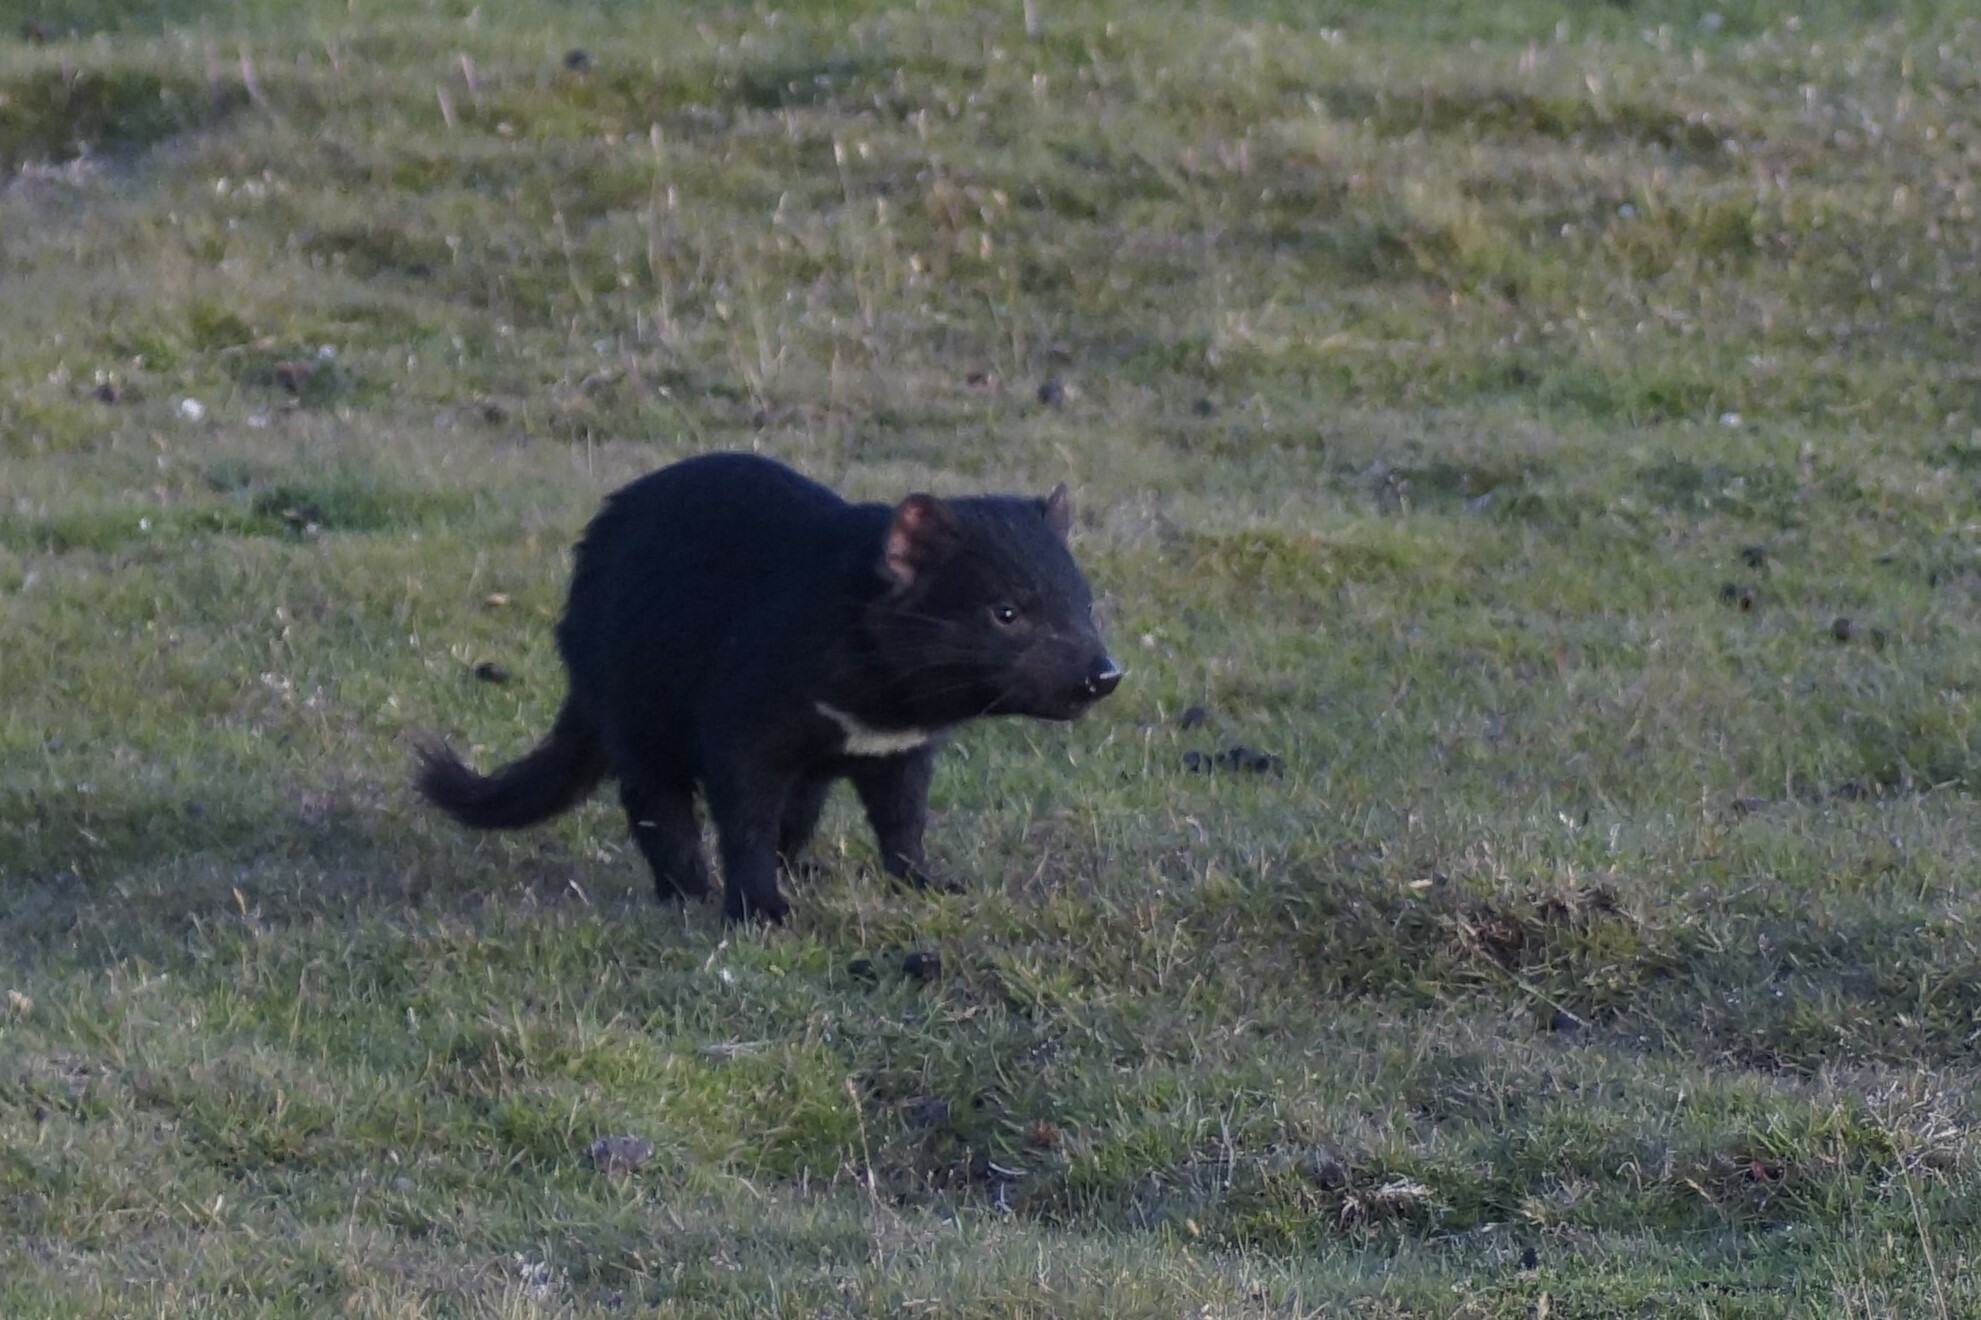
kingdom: Animalia
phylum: Chordata
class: Mammalia
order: Dasyuromorphia
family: Dasyuridae
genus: Sarcophilus
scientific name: Sarcophilus harrisii
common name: Tasmanian devil
